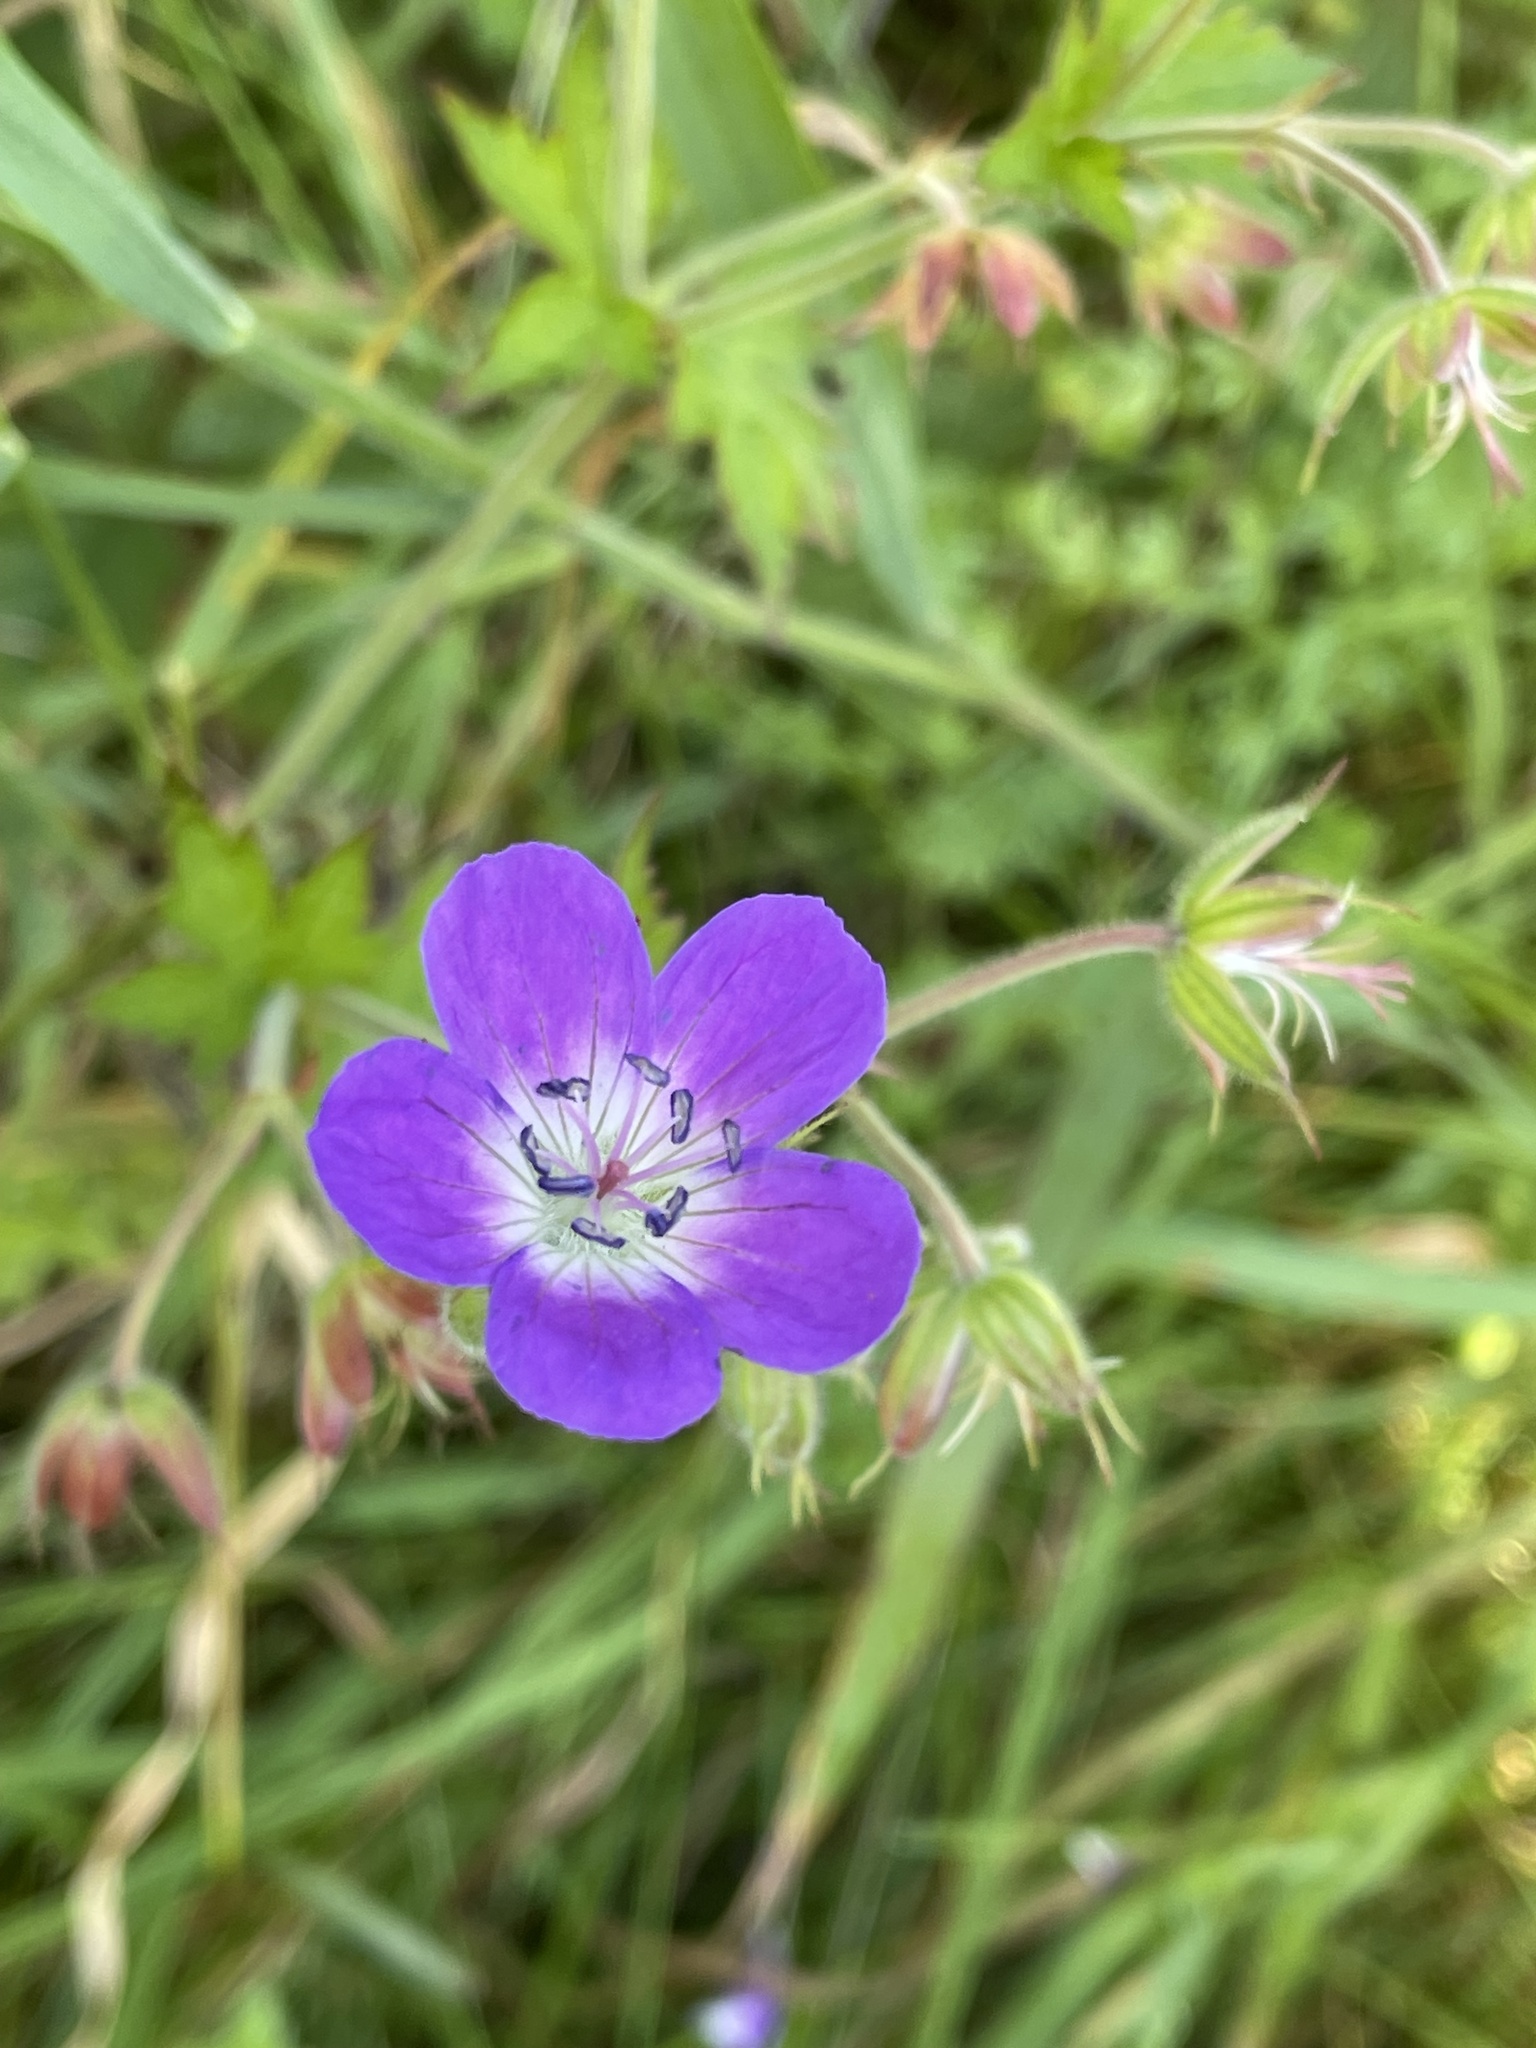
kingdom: Plantae
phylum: Tracheophyta
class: Magnoliopsida
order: Geraniales
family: Geraniaceae
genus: Geranium
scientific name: Geranium sylvaticum
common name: Wood crane's-bill
